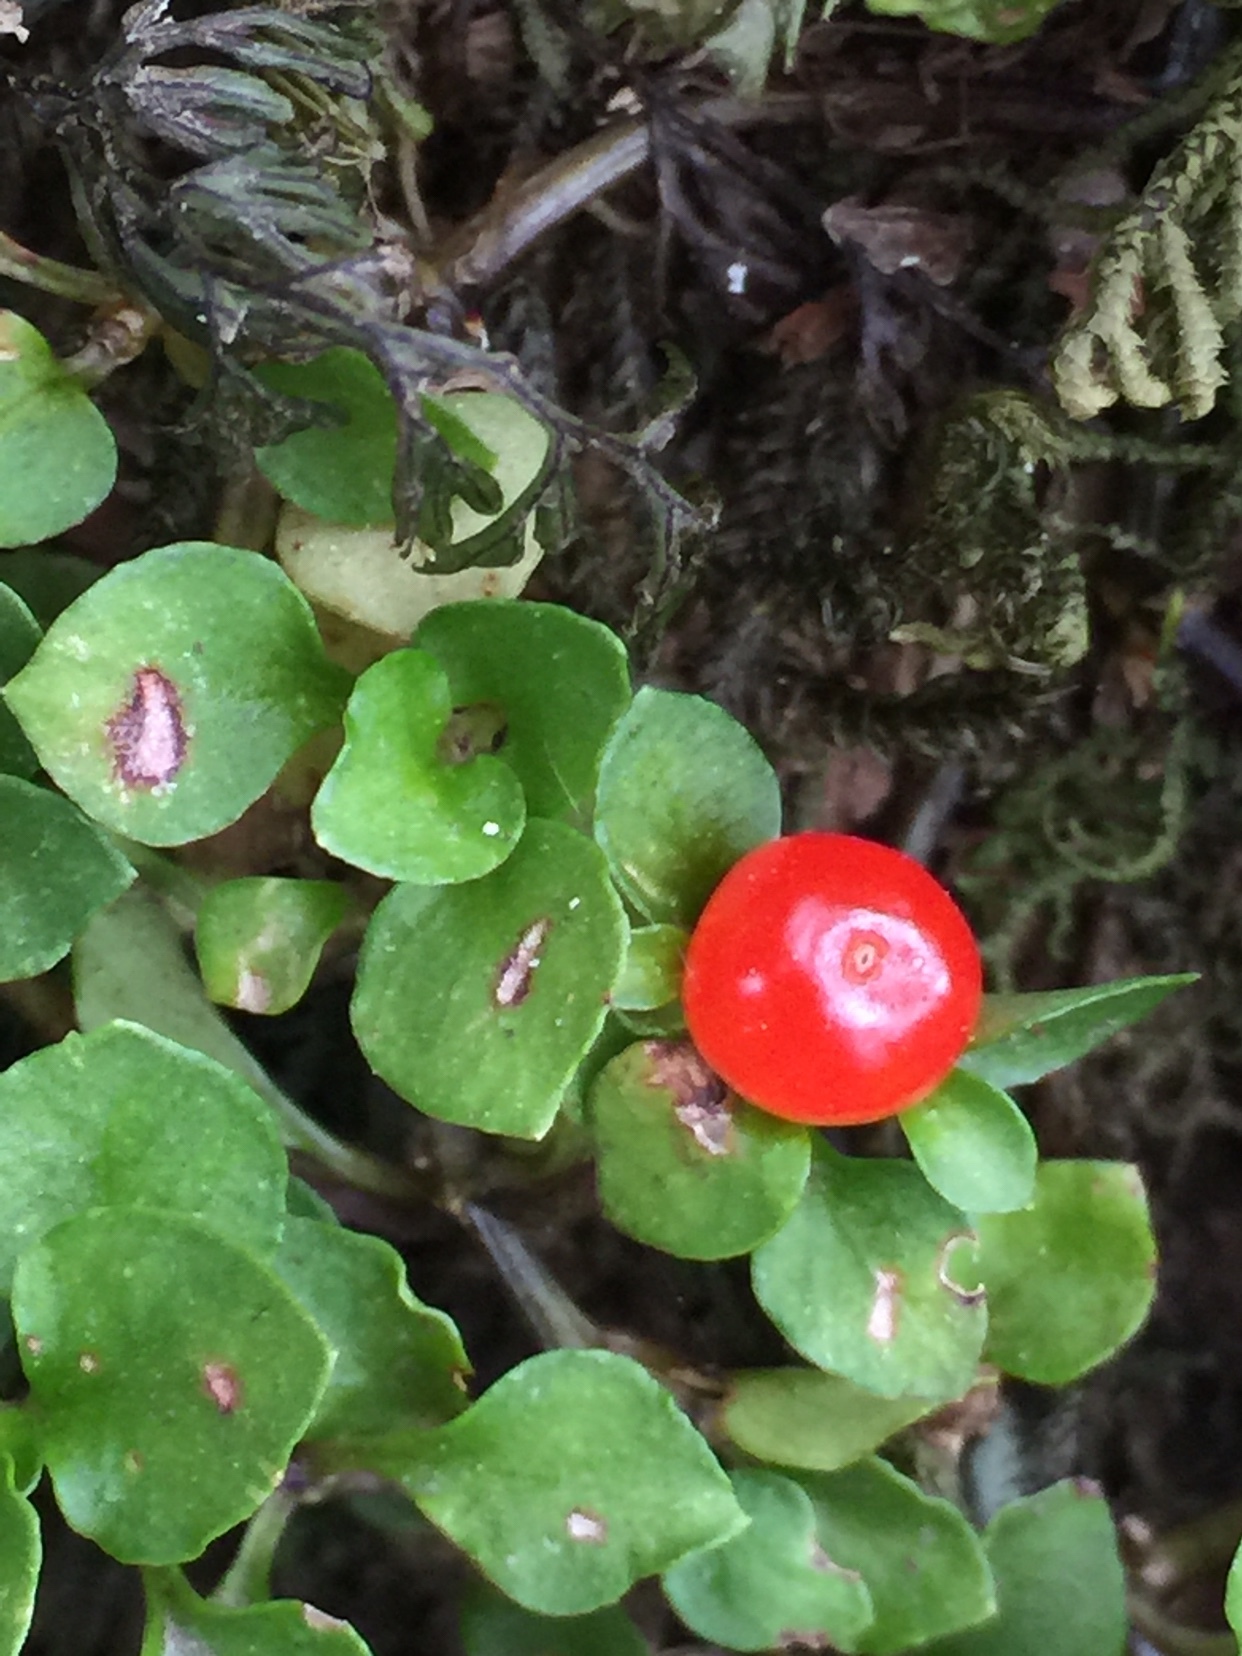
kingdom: Plantae
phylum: Tracheophyta
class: Magnoliopsida
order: Gentianales
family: Rubiaceae
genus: Nertera
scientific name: Nertera granadensis
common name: Beadplant
